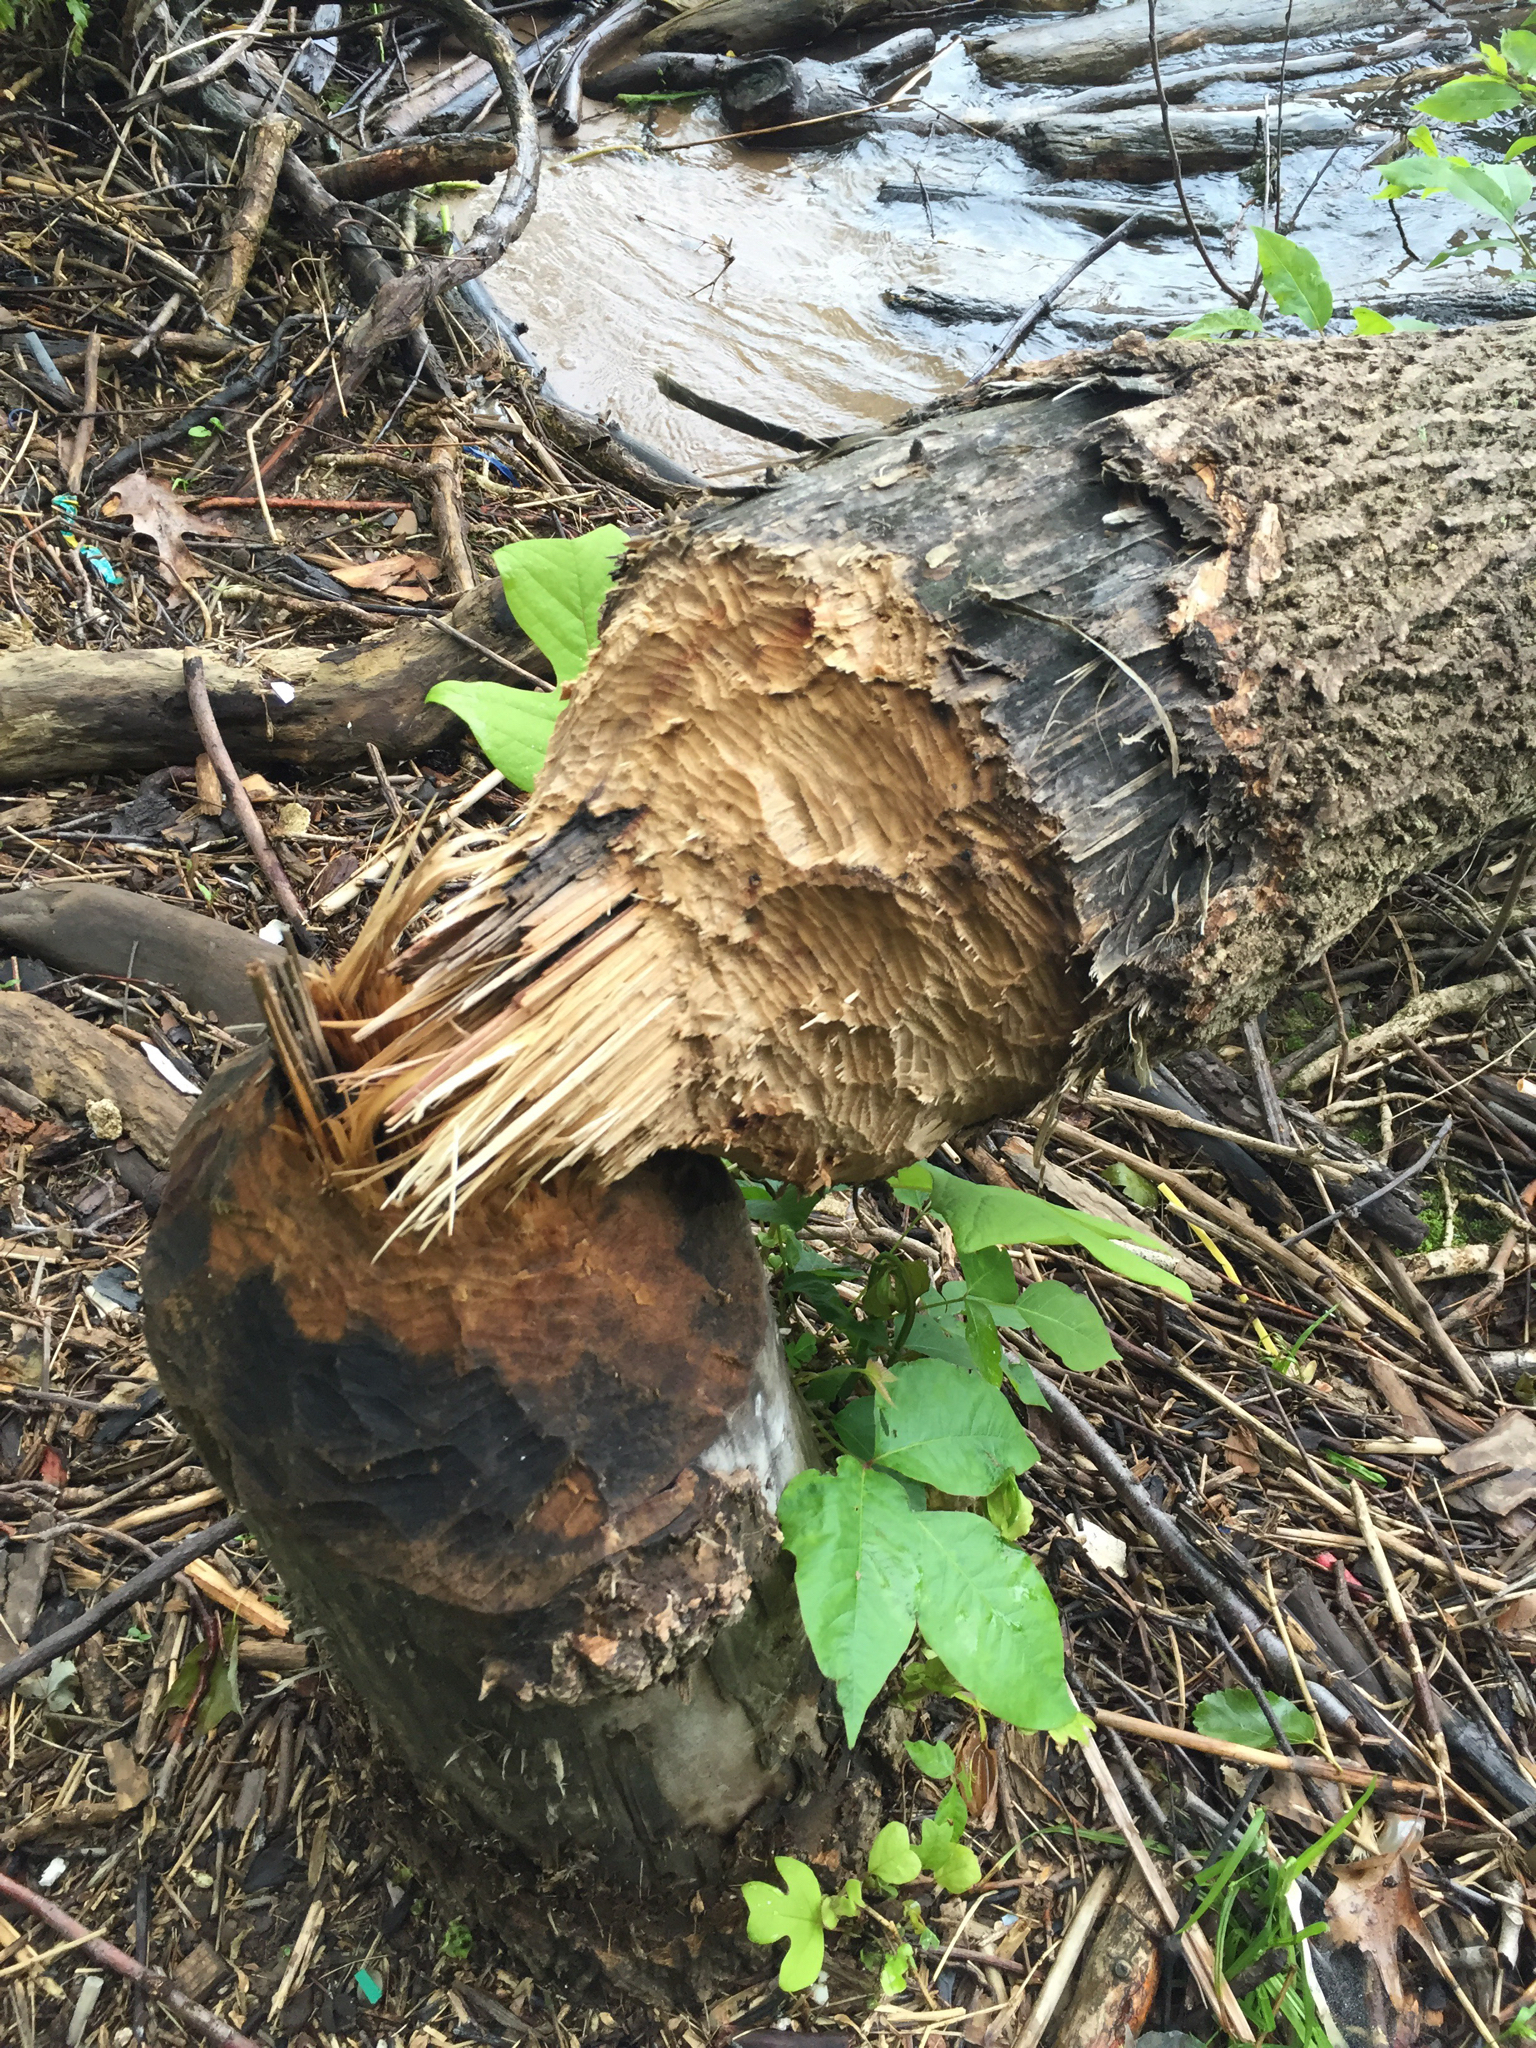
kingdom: Animalia
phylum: Chordata
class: Mammalia
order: Rodentia
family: Castoridae
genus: Castor
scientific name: Castor canadensis
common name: American beaver
